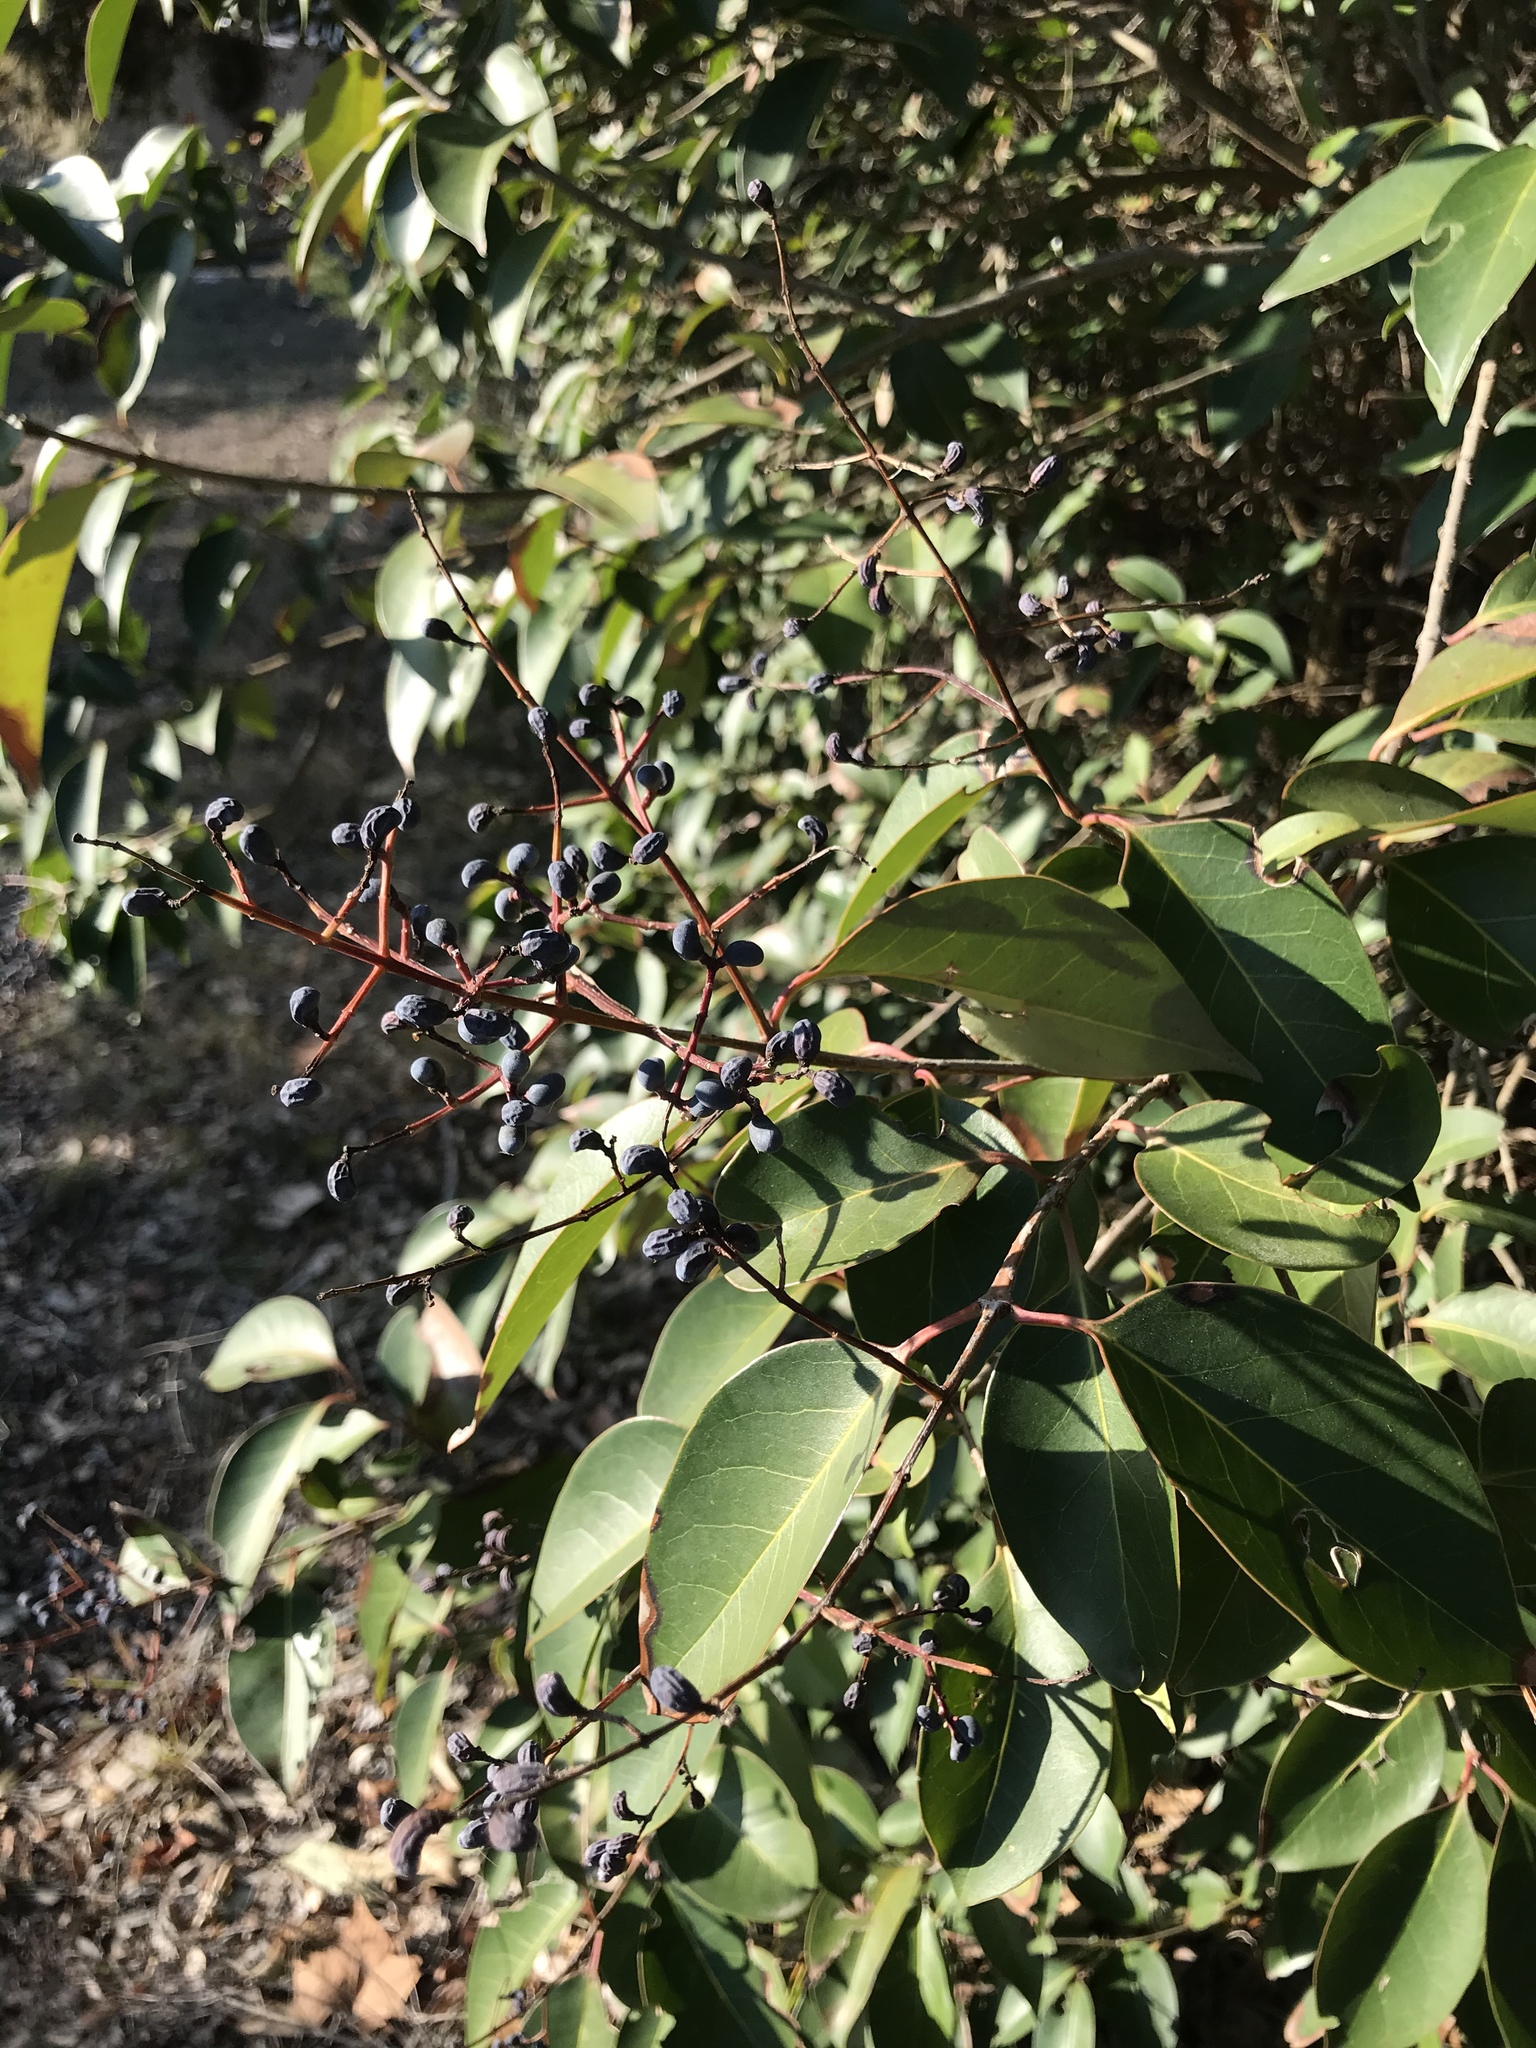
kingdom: Plantae
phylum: Tracheophyta
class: Magnoliopsida
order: Lamiales
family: Oleaceae
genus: Ligustrum
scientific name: Ligustrum lucidum
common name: Glossy privet
